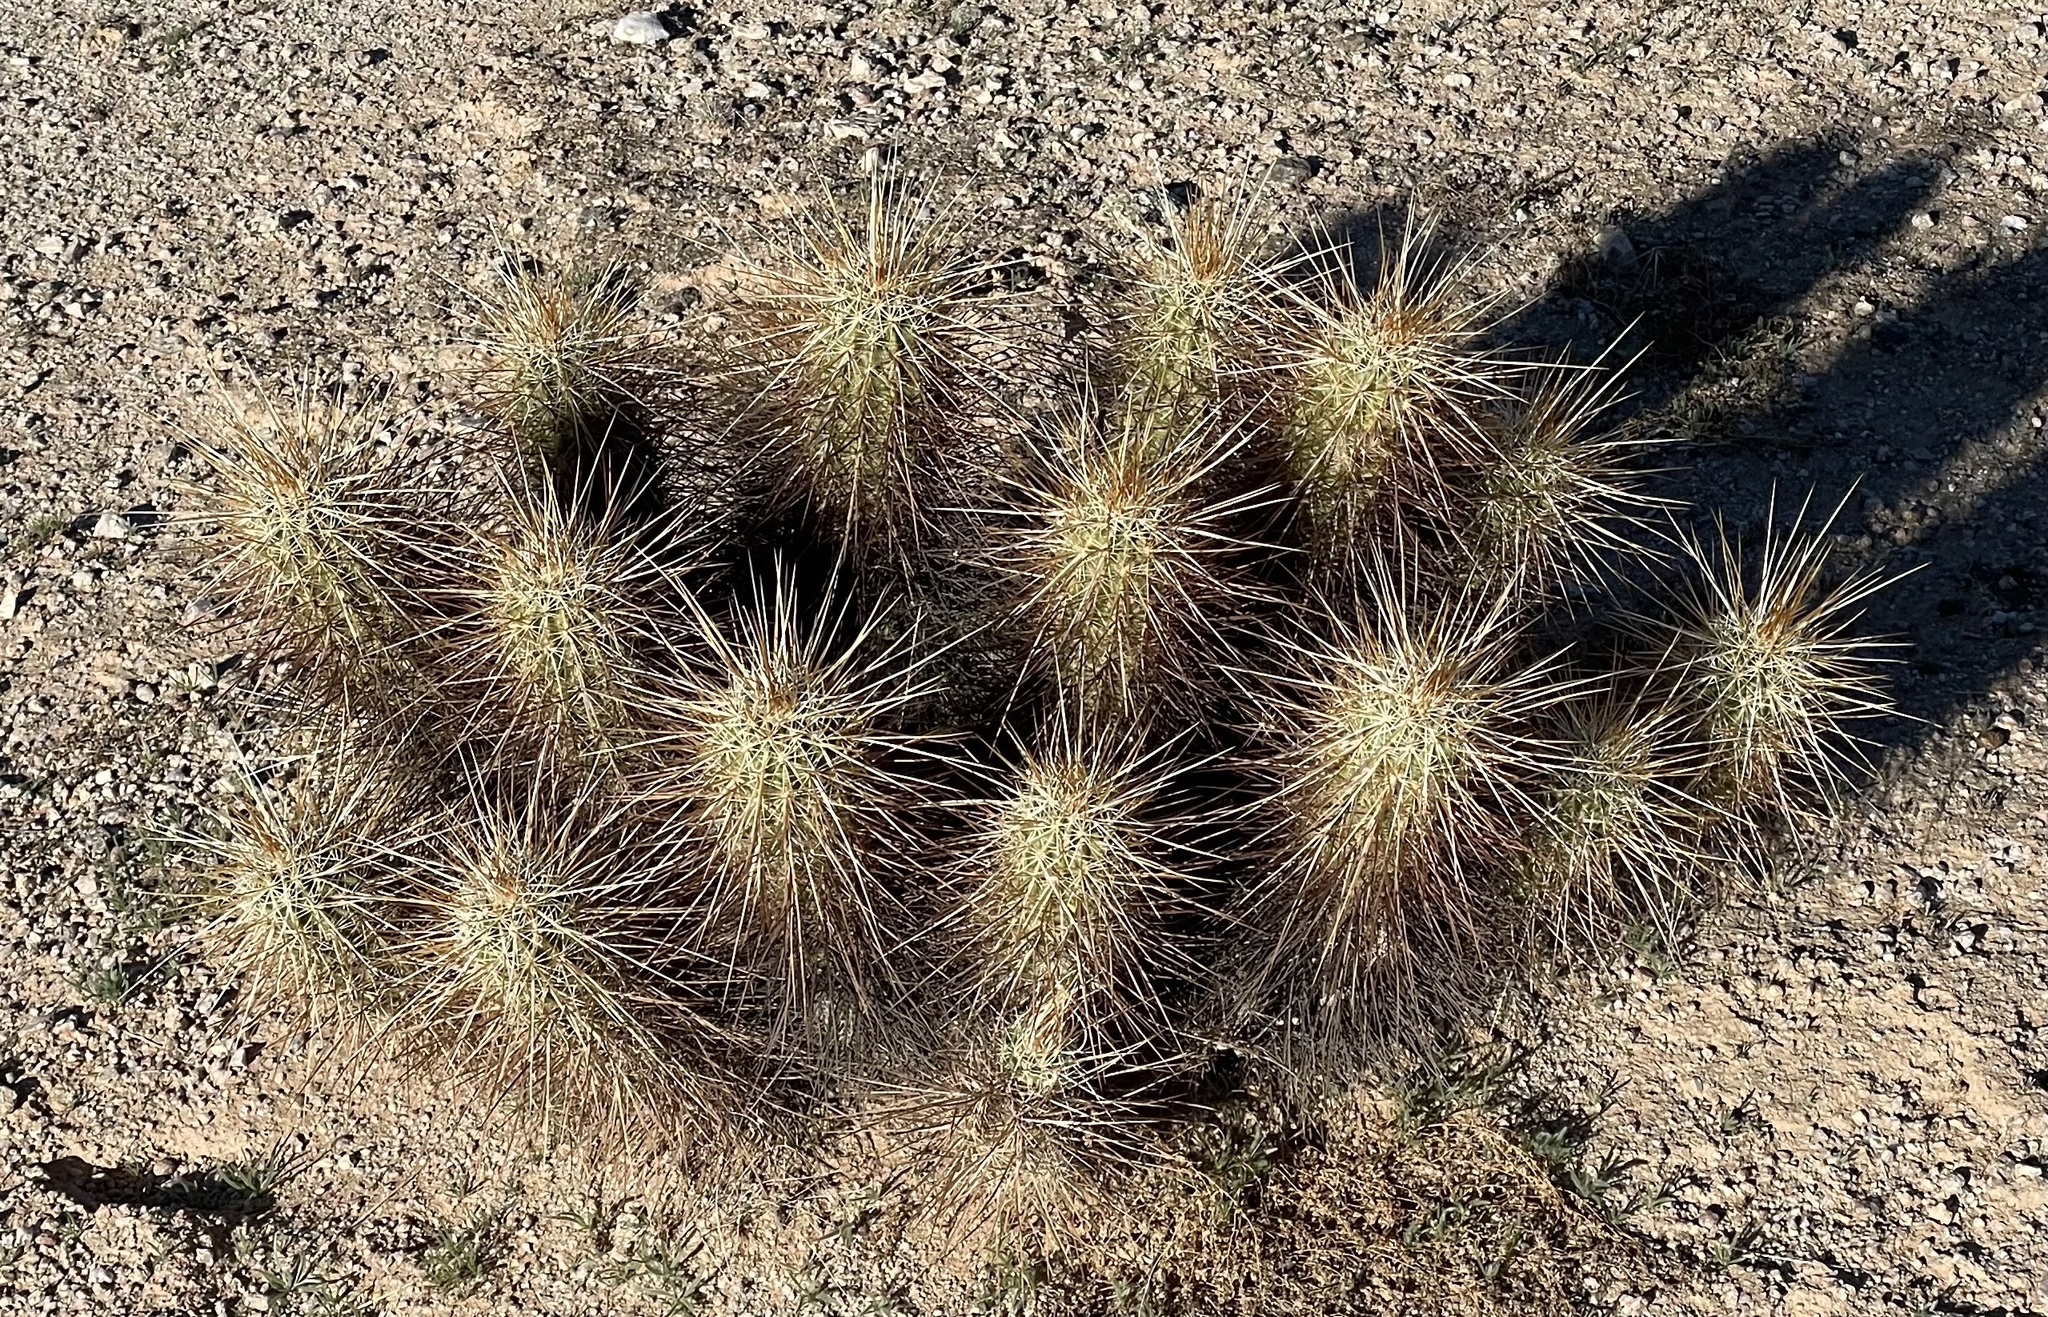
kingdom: Plantae
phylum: Tracheophyta
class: Magnoliopsida
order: Caryophyllales
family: Cactaceae
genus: Echinocereus
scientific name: Echinocereus engelmannii
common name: Engelmann's hedgehog cactus
